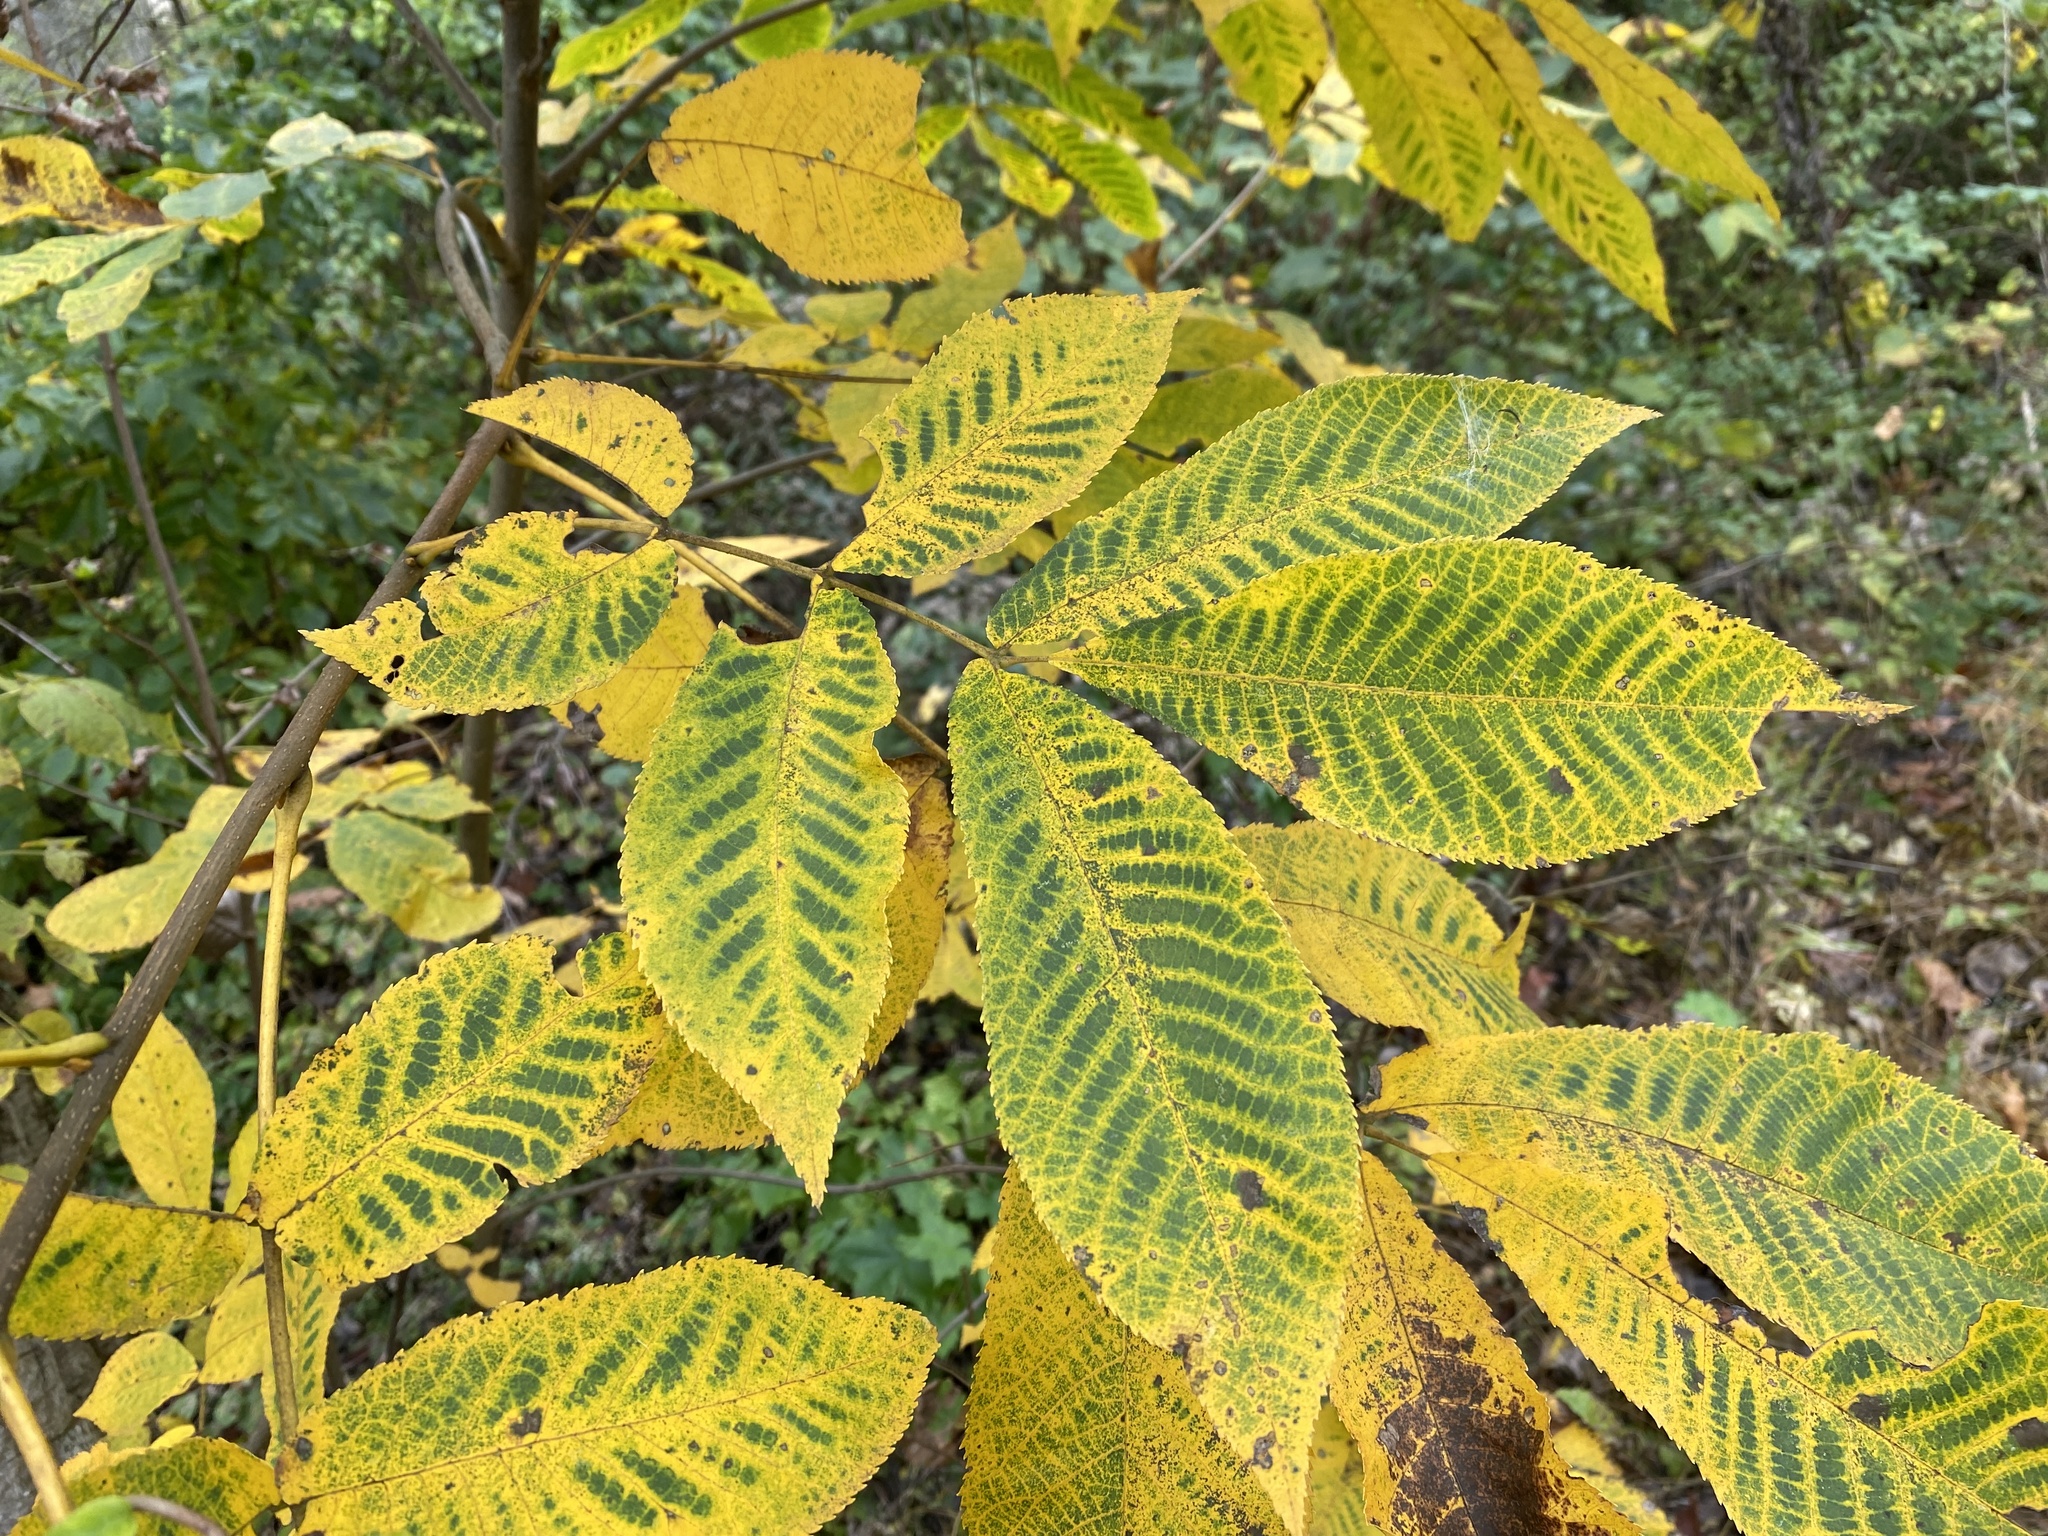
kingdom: Plantae
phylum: Tracheophyta
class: Magnoliopsida
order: Fagales
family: Juglandaceae
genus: Carya
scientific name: Carya cordiformis
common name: Bitternut hickory
